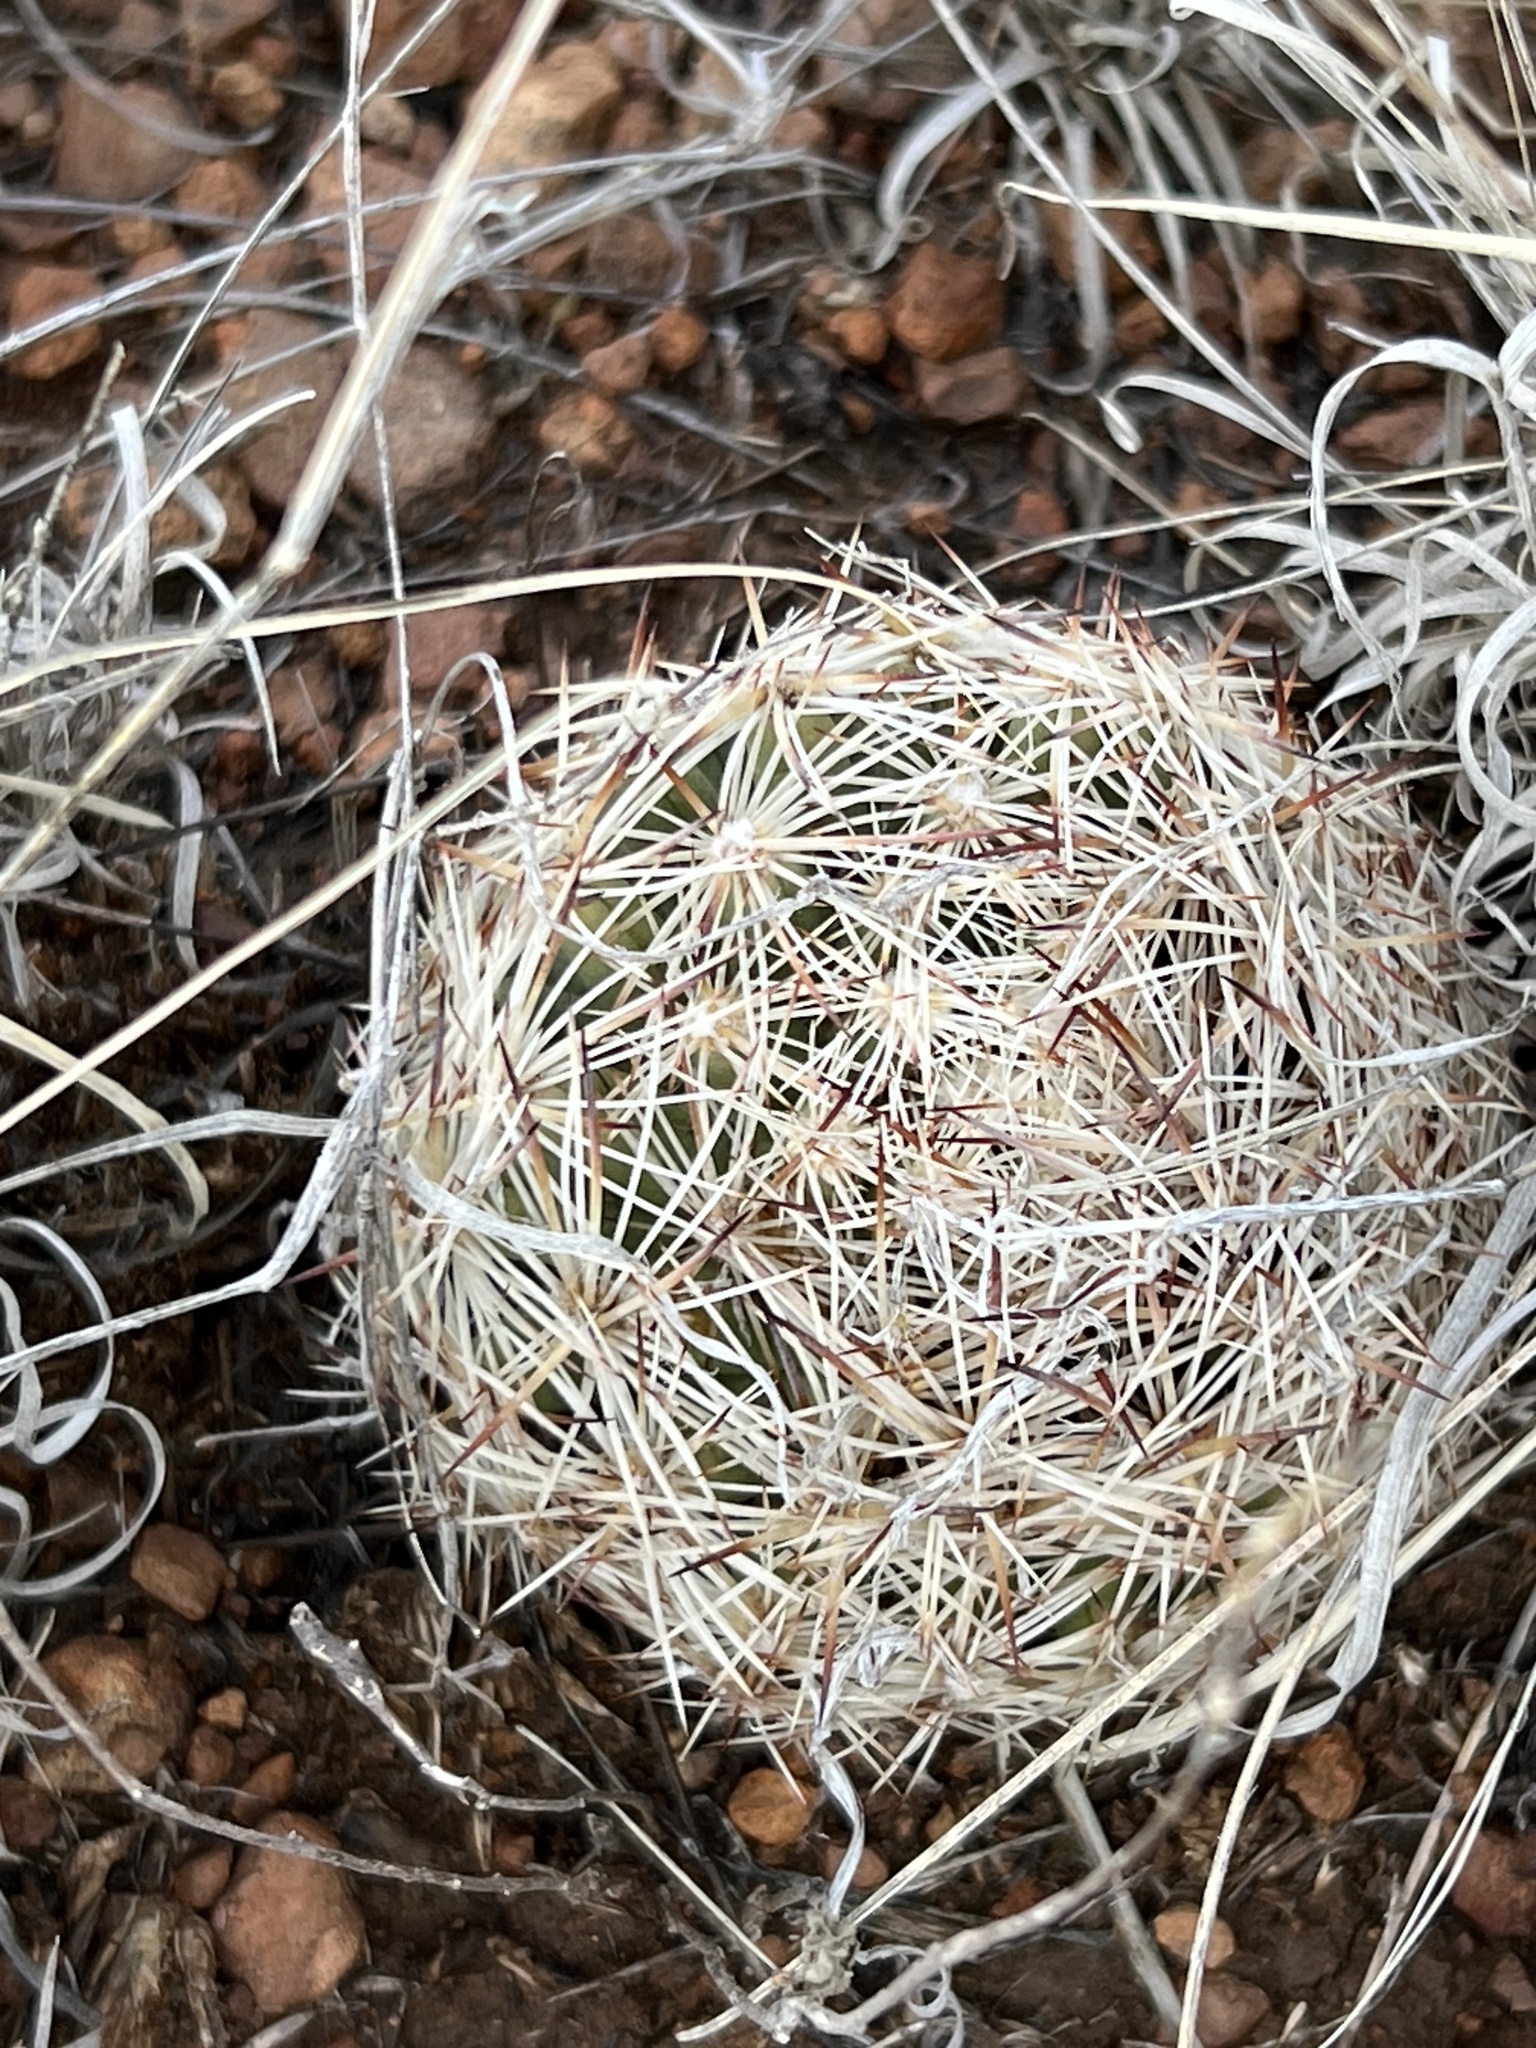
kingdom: Plantae
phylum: Tracheophyta
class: Magnoliopsida
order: Caryophyllales
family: Cactaceae
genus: Pelecyphora
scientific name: Pelecyphora vivipara
